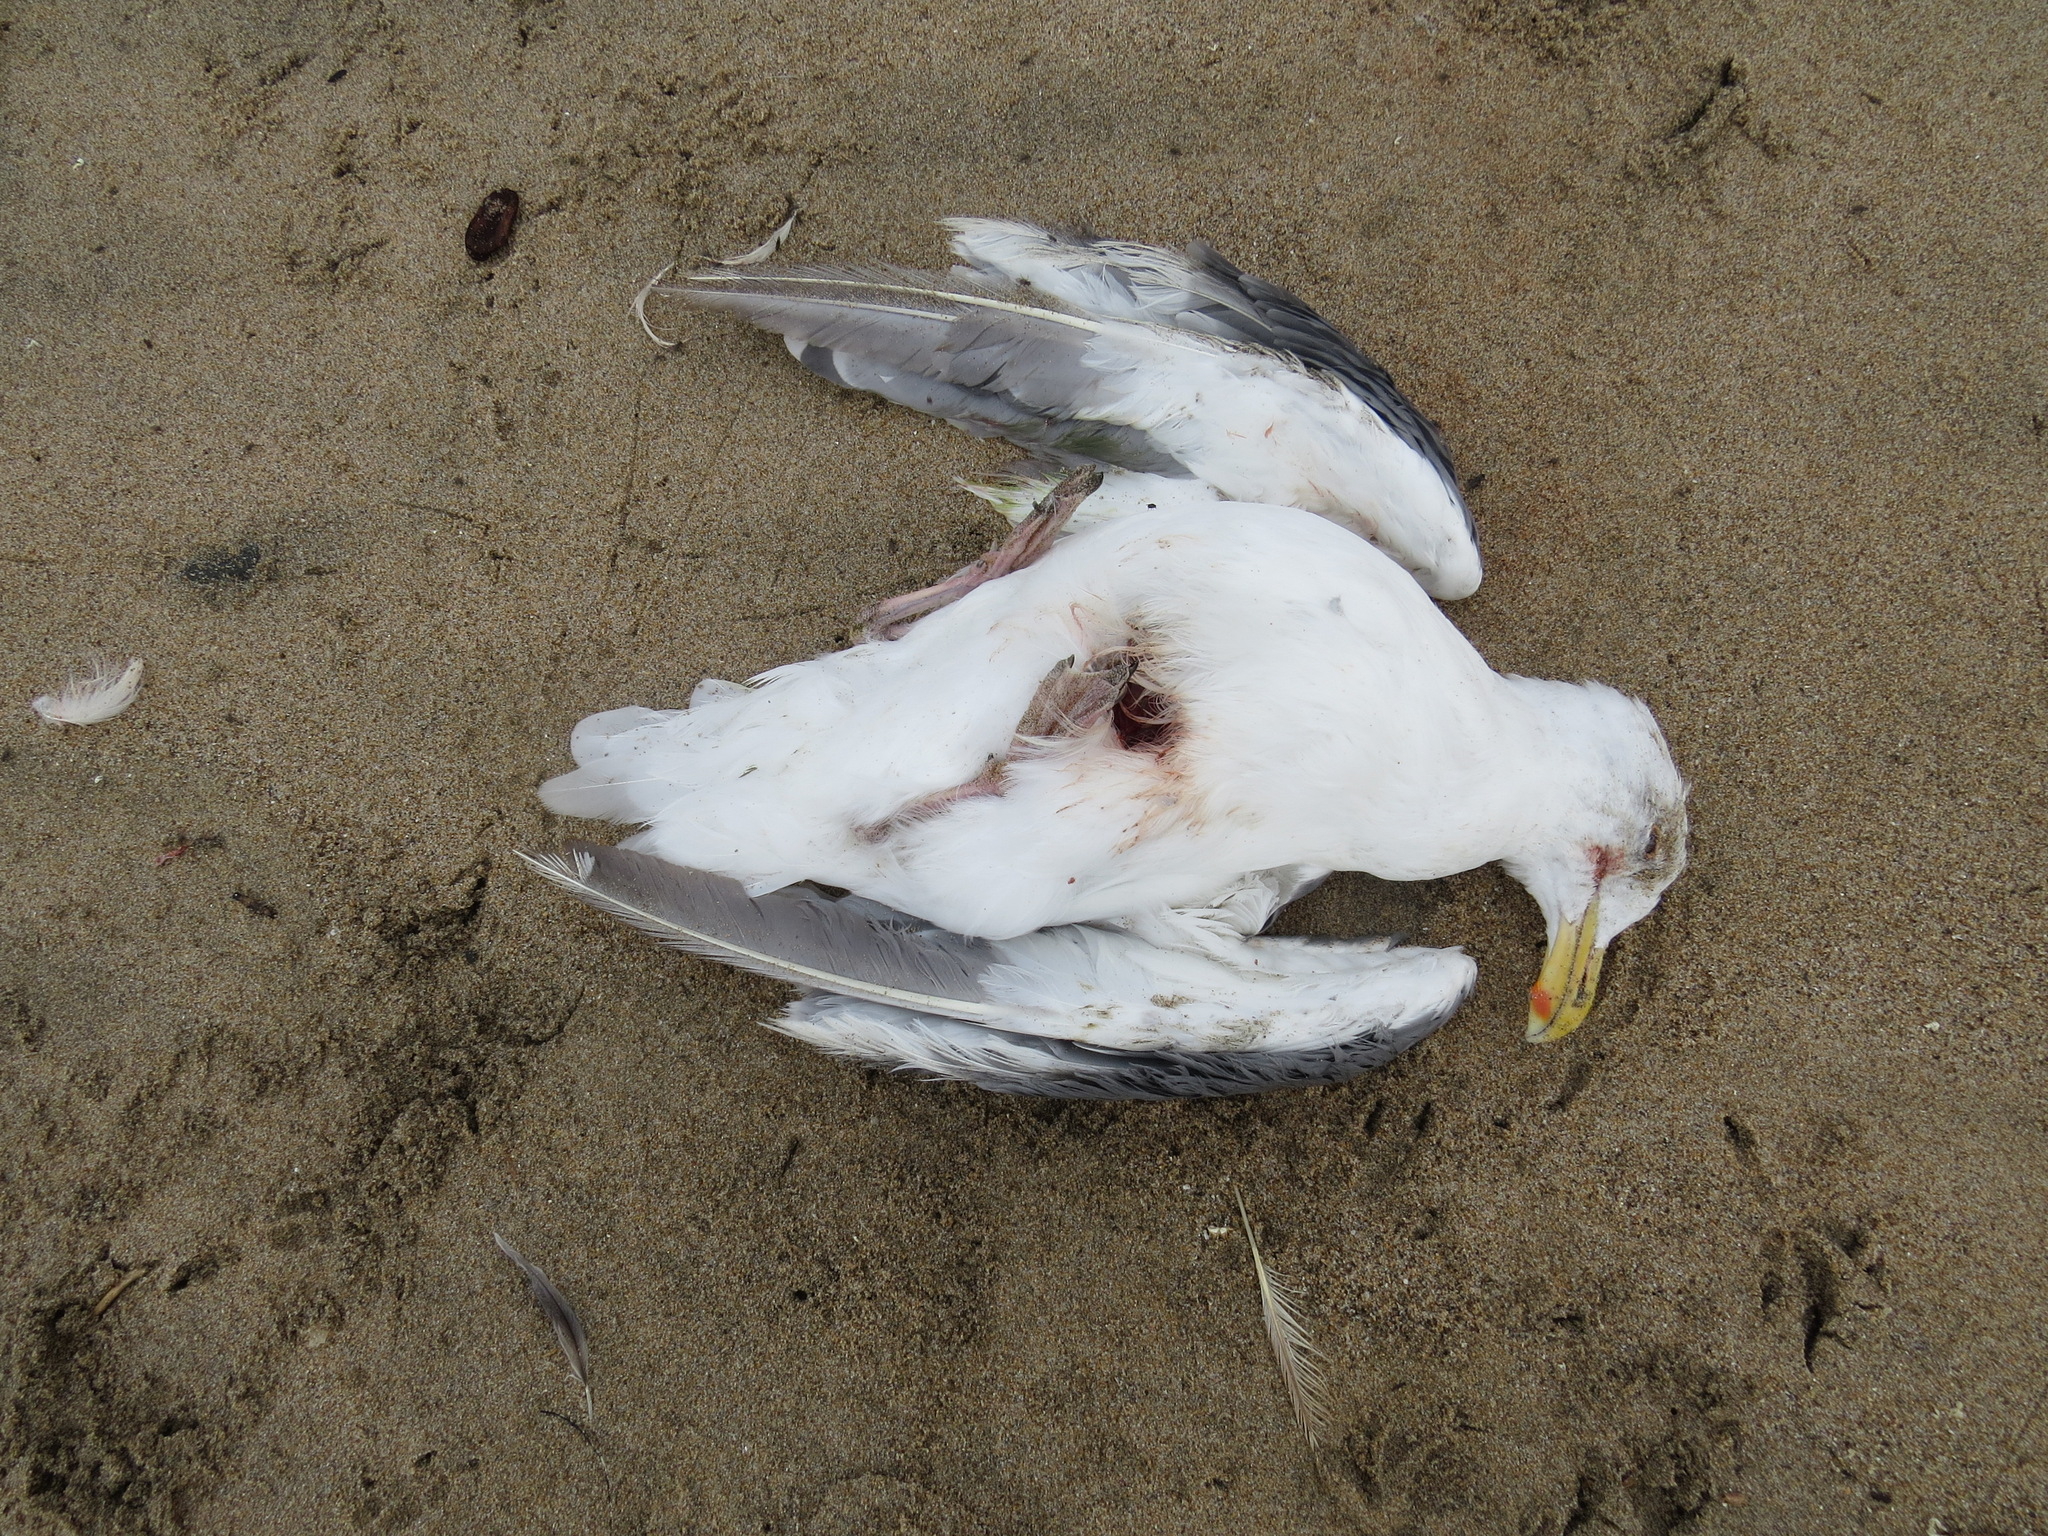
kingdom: Animalia
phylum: Chordata
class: Aves
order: Charadriiformes
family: Laridae
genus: Larus
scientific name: Larus occidentalis
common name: Western gull
